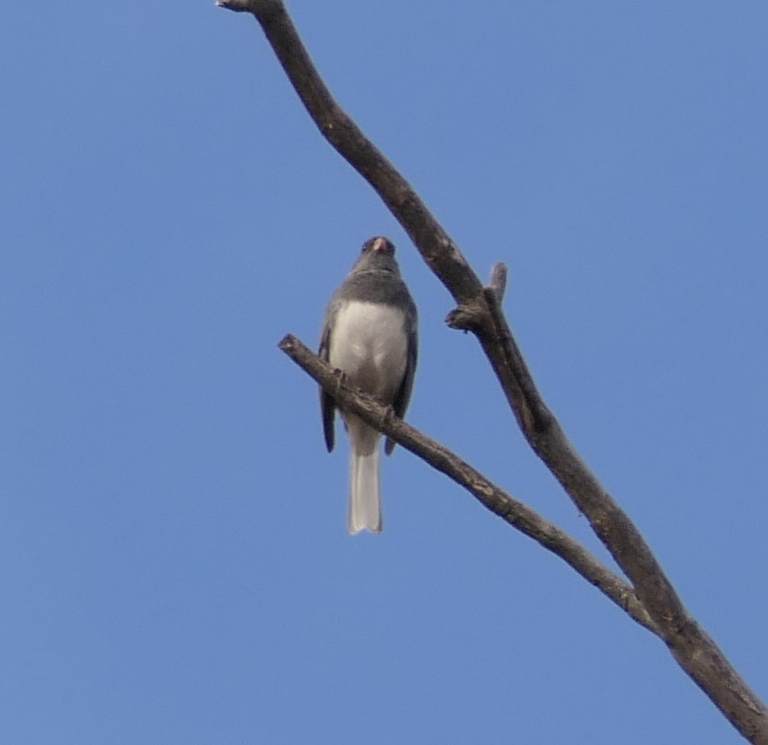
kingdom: Animalia
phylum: Chordata
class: Aves
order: Passeriformes
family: Passerellidae
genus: Junco
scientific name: Junco hyemalis
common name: Dark-eyed junco
